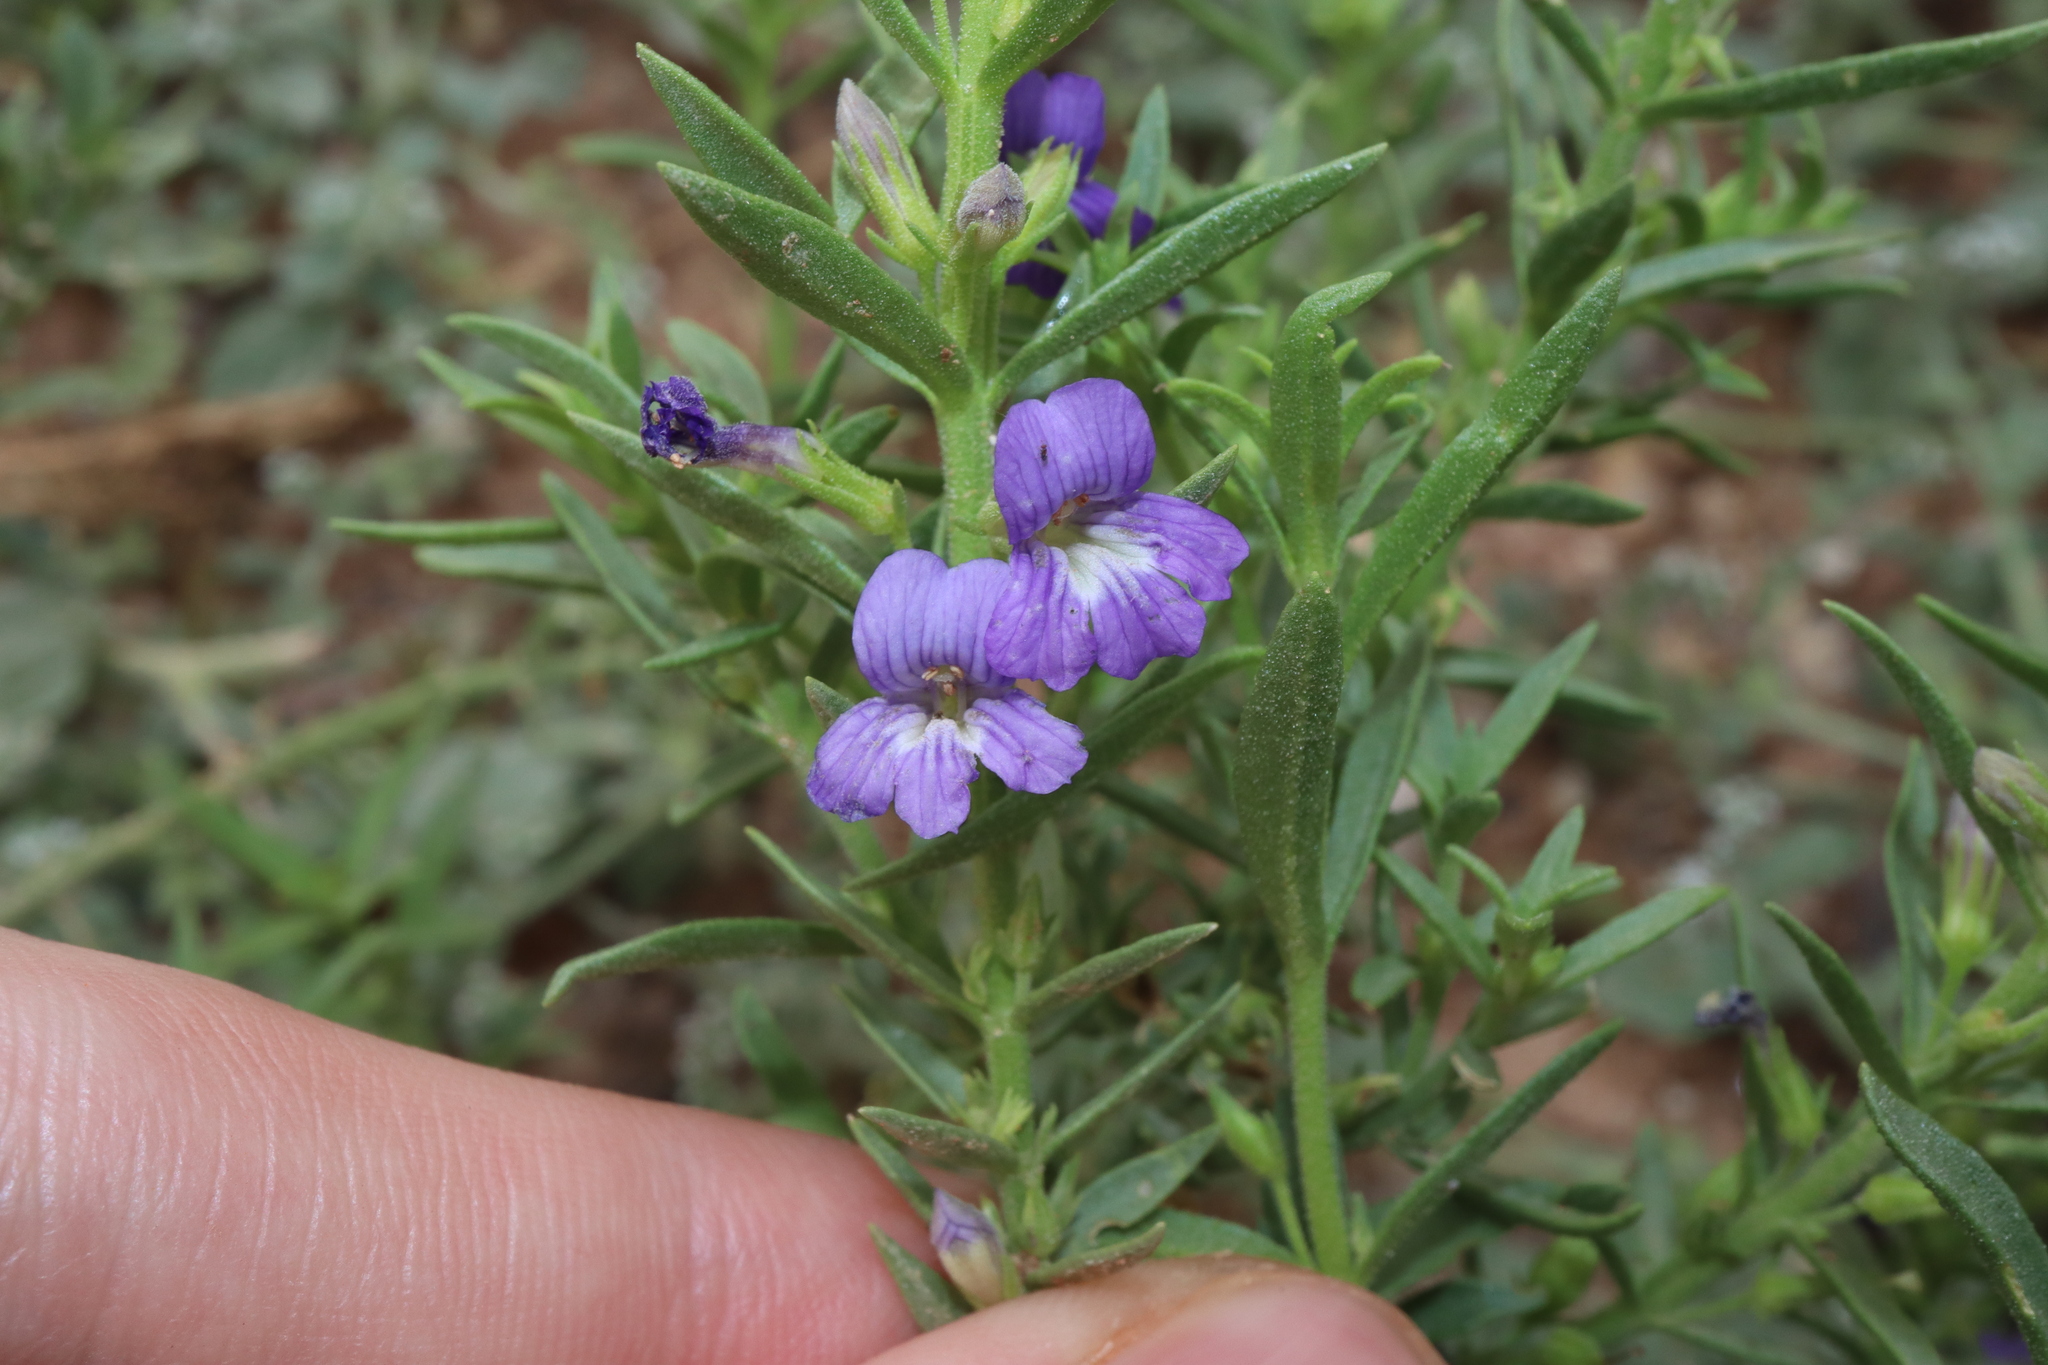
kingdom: Plantae
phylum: Tracheophyta
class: Magnoliopsida
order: Lamiales
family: Plantaginaceae
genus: Stemodia
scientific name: Stemodia florulenta
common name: Bluerod
